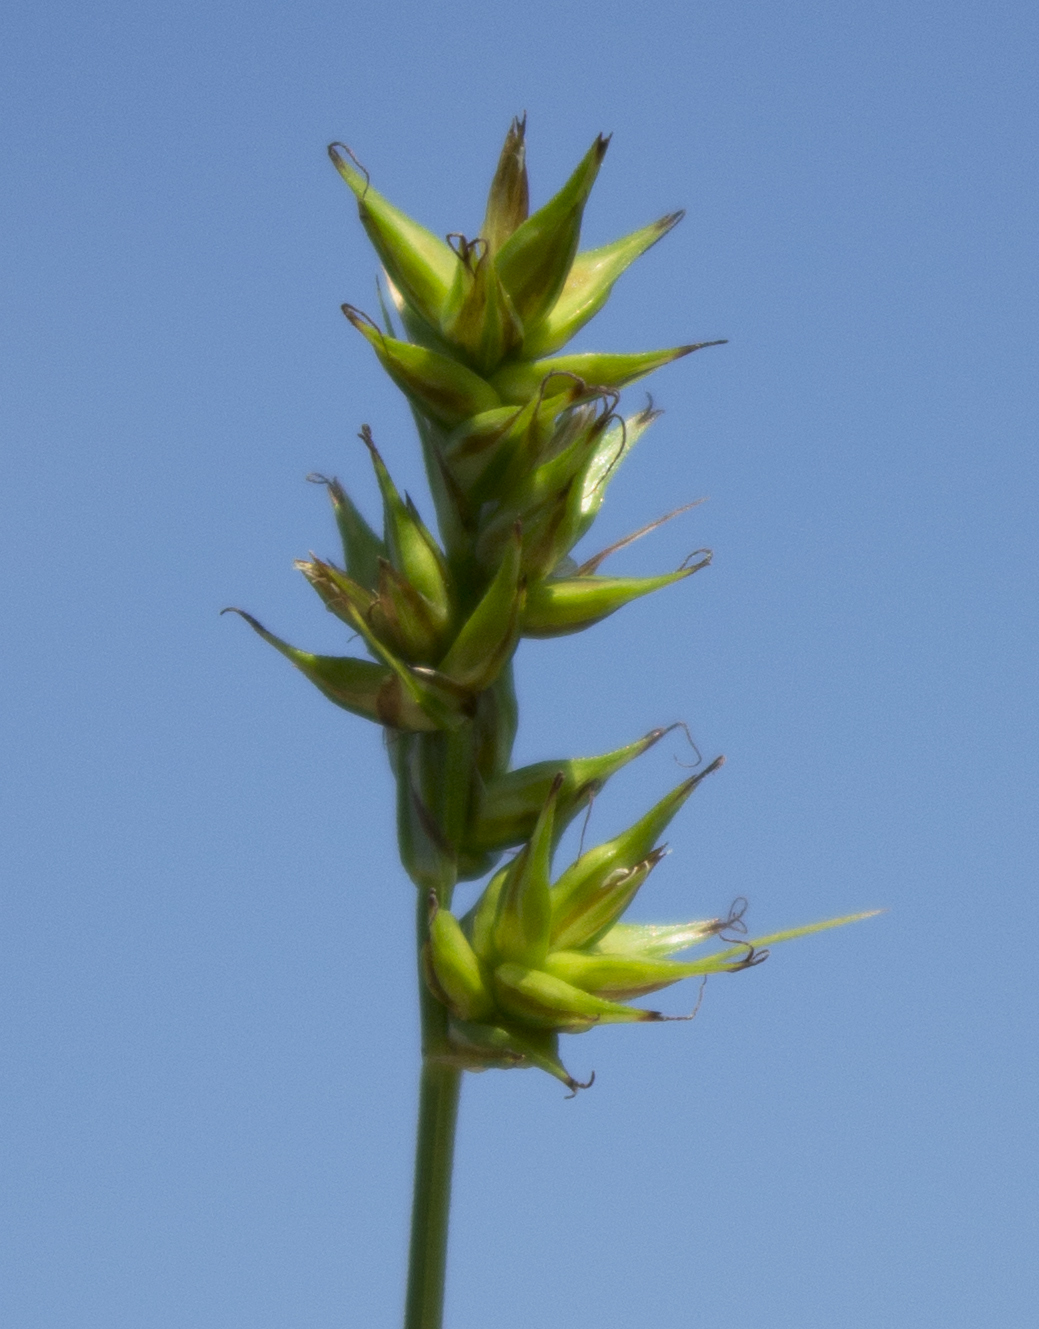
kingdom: Plantae
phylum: Tracheophyta
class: Liliopsida
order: Poales
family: Cyperaceae
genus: Carex
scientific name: Carex spicata
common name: Spiked sedge
